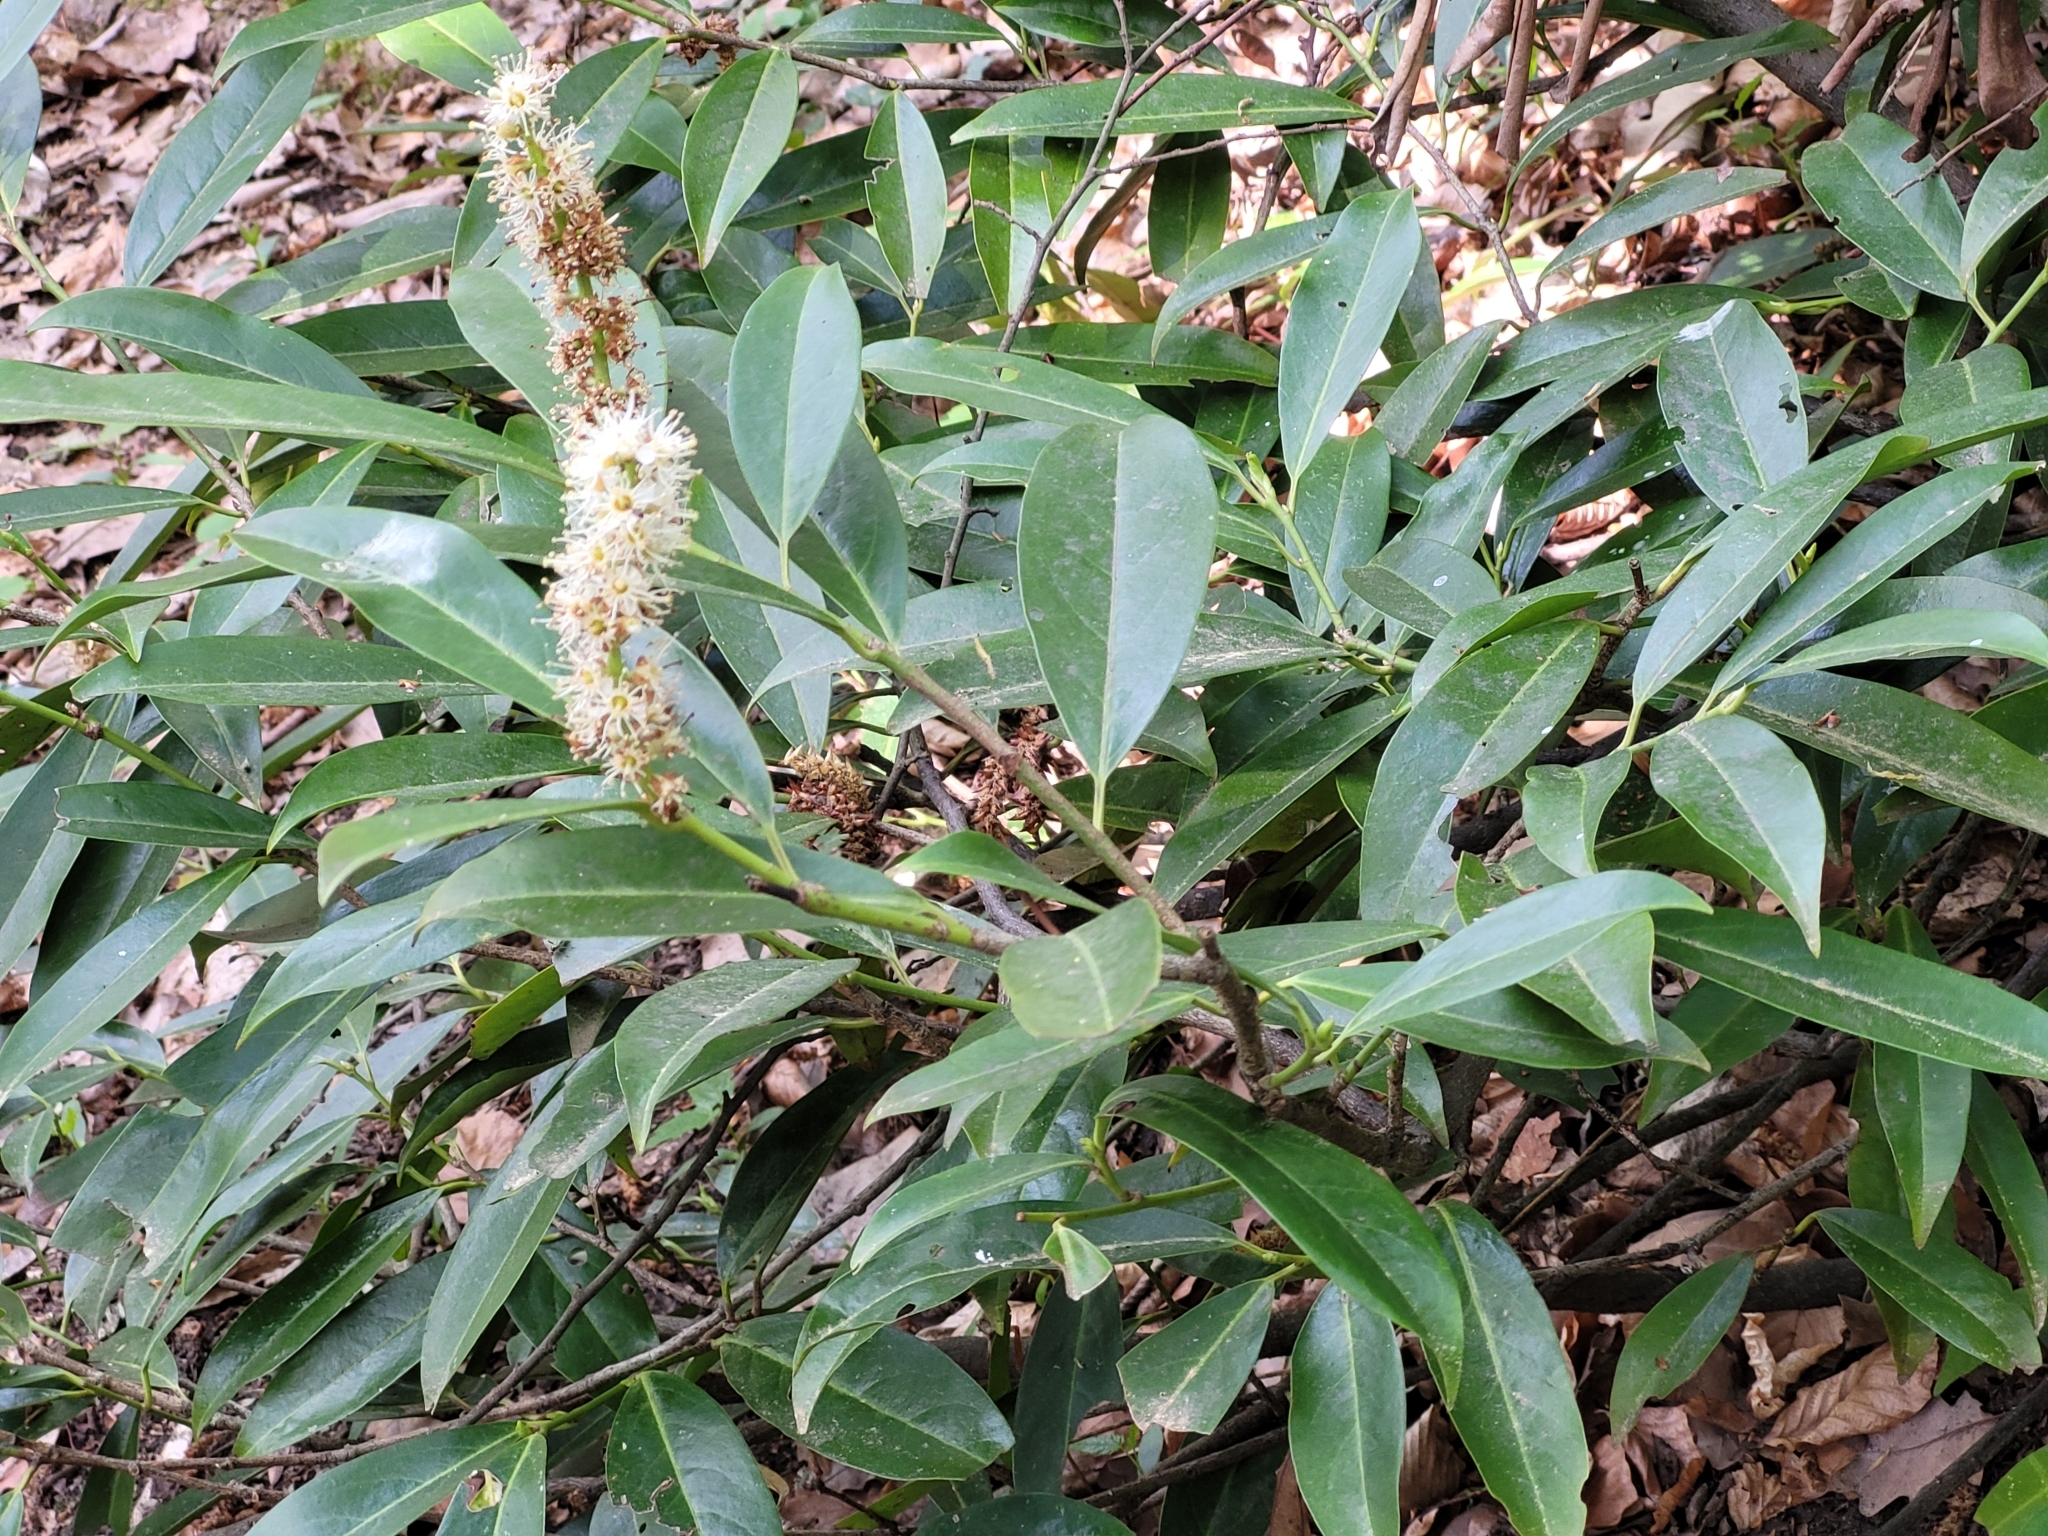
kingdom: Plantae
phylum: Tracheophyta
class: Magnoliopsida
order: Rosales
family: Rosaceae
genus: Prunus
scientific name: Prunus laurocerasus
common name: Cherry laurel
